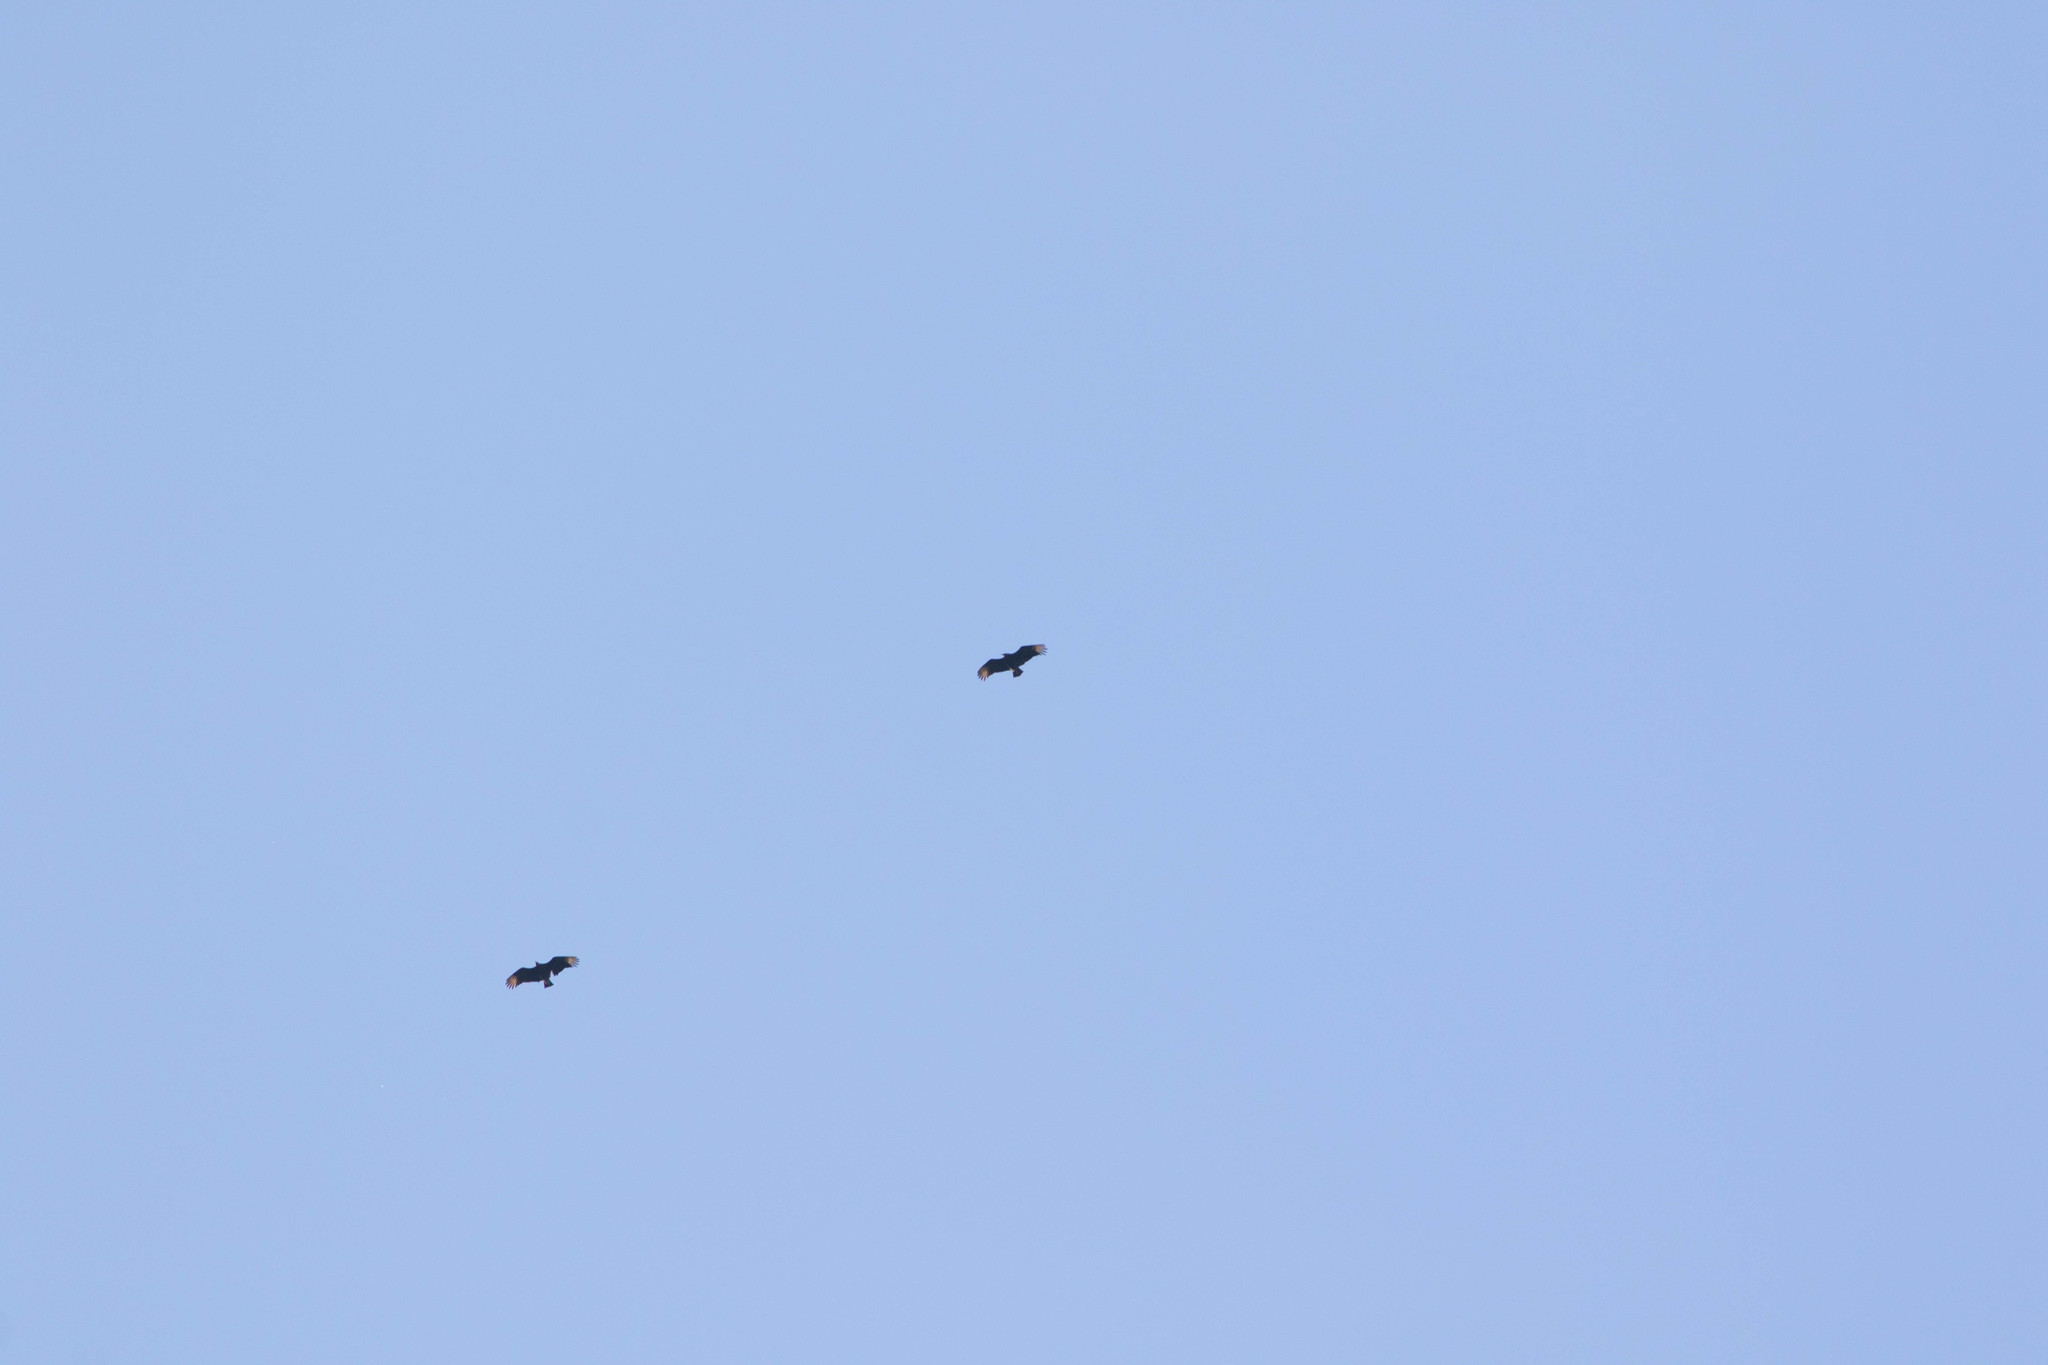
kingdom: Animalia
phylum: Chordata
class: Aves
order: Accipitriformes
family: Cathartidae
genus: Coragyps
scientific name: Coragyps atratus
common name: Black vulture
